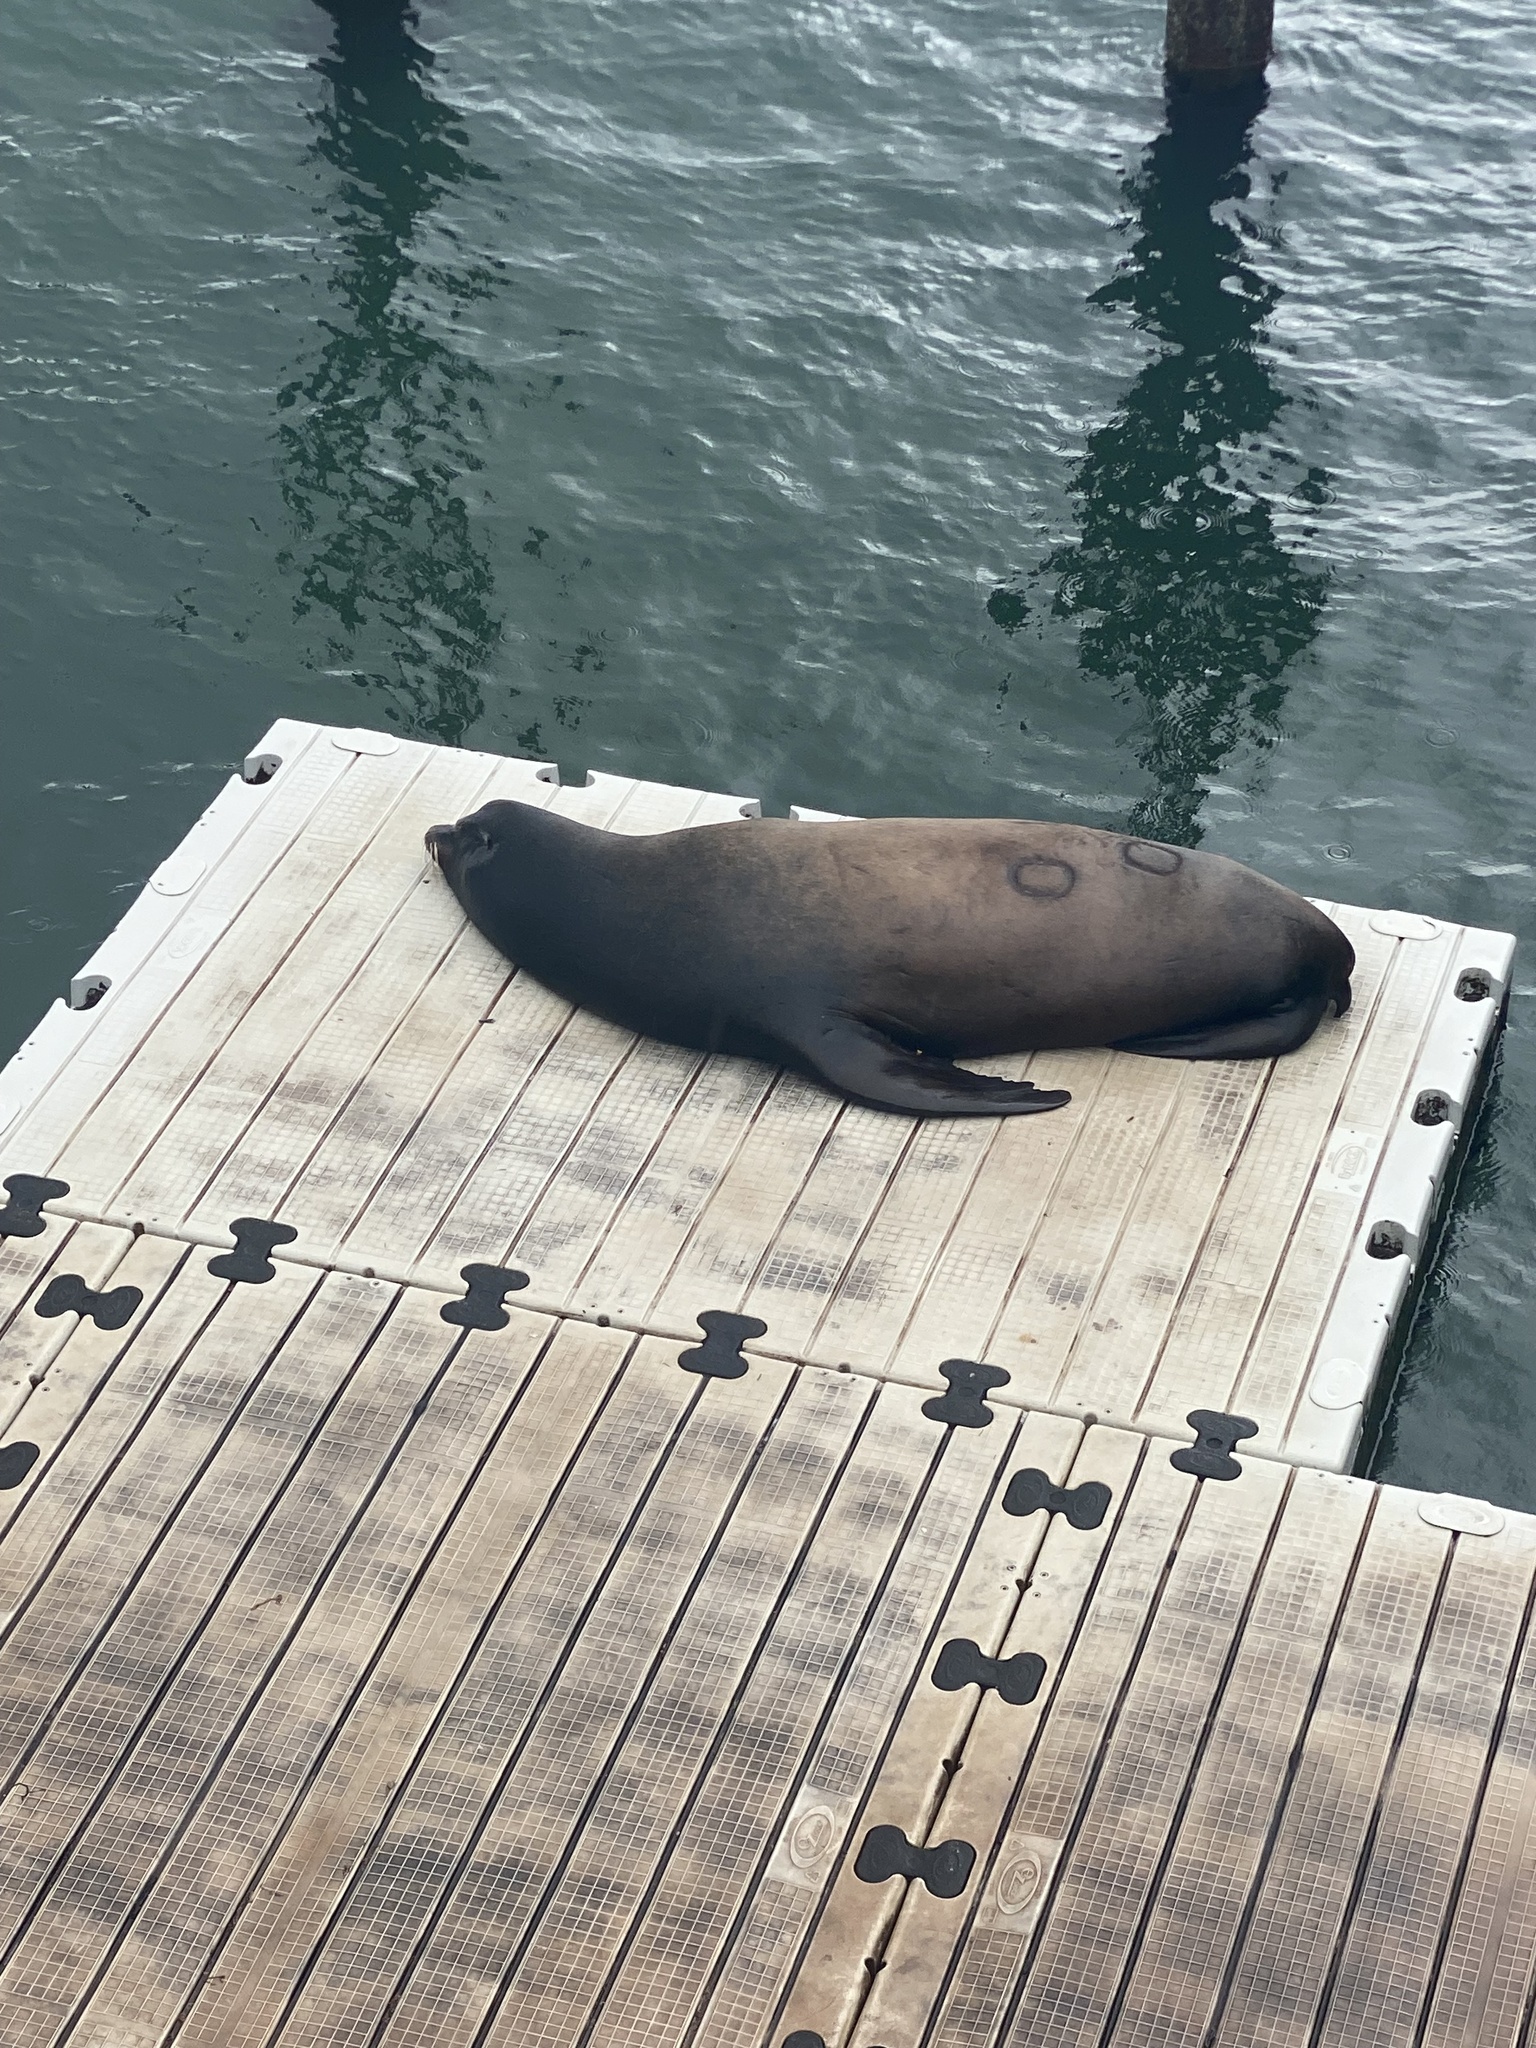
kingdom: Animalia
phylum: Chordata
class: Mammalia
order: Carnivora
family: Otariidae
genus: Zalophus
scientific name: Zalophus californianus
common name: California sea lion
